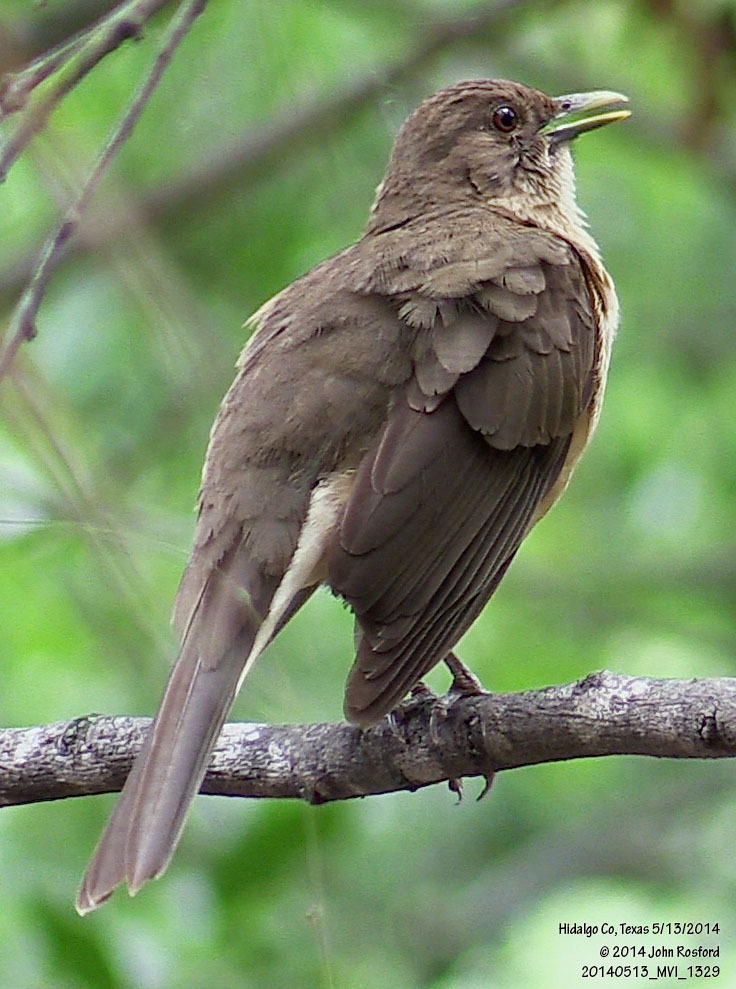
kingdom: Animalia
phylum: Chordata
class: Aves
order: Passeriformes
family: Turdidae
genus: Turdus
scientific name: Turdus grayi
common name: Clay-colored thrush
